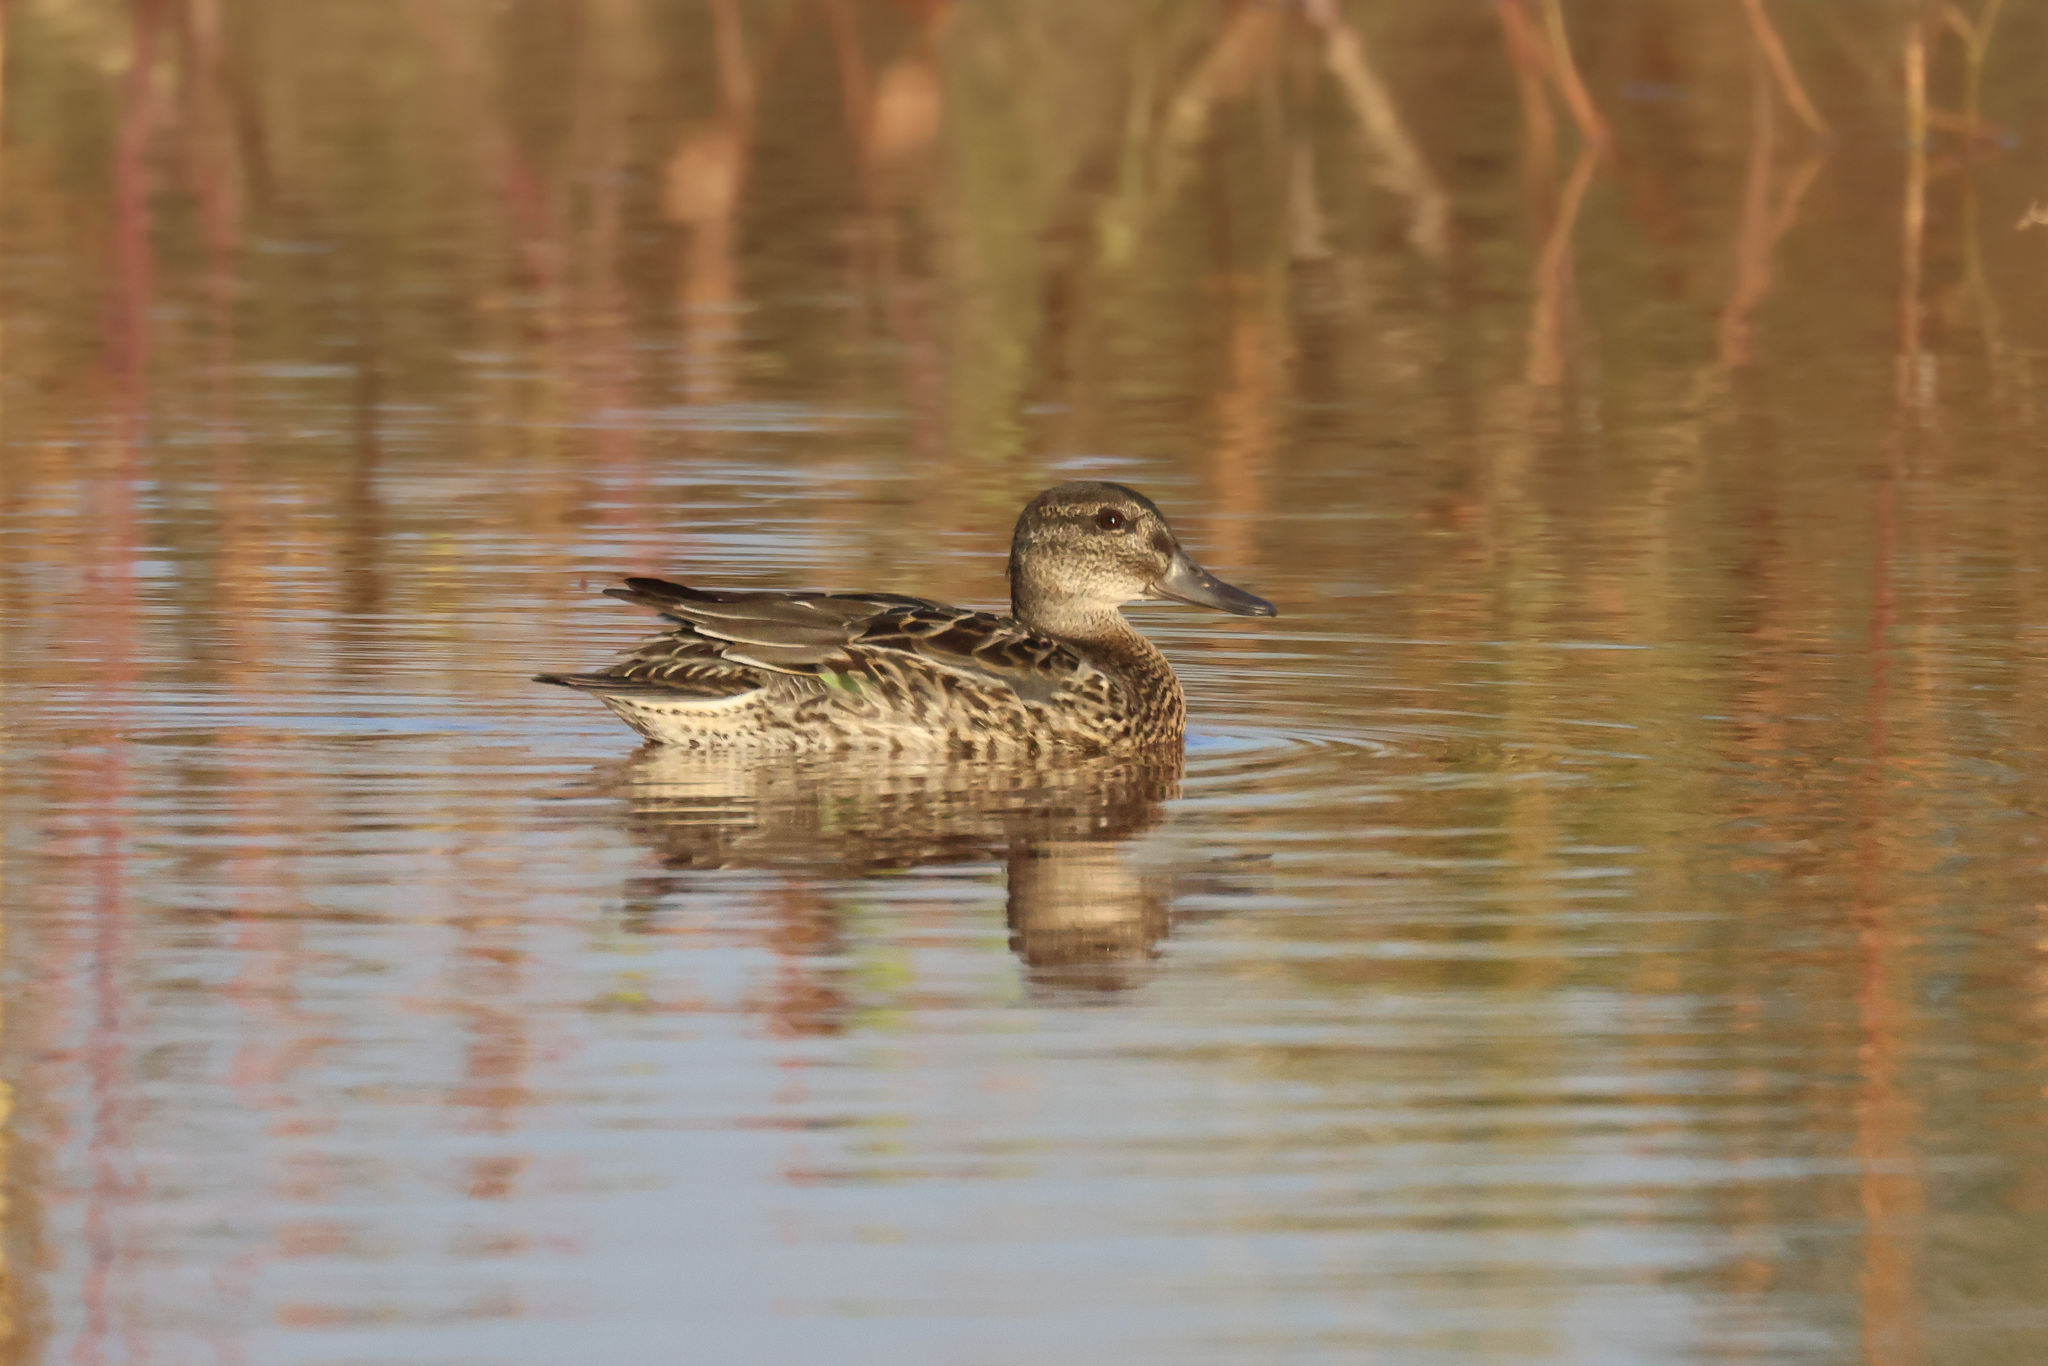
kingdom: Animalia
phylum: Chordata
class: Aves
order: Anseriformes
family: Anatidae
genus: Anas
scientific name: Anas crecca
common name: Eurasian teal
